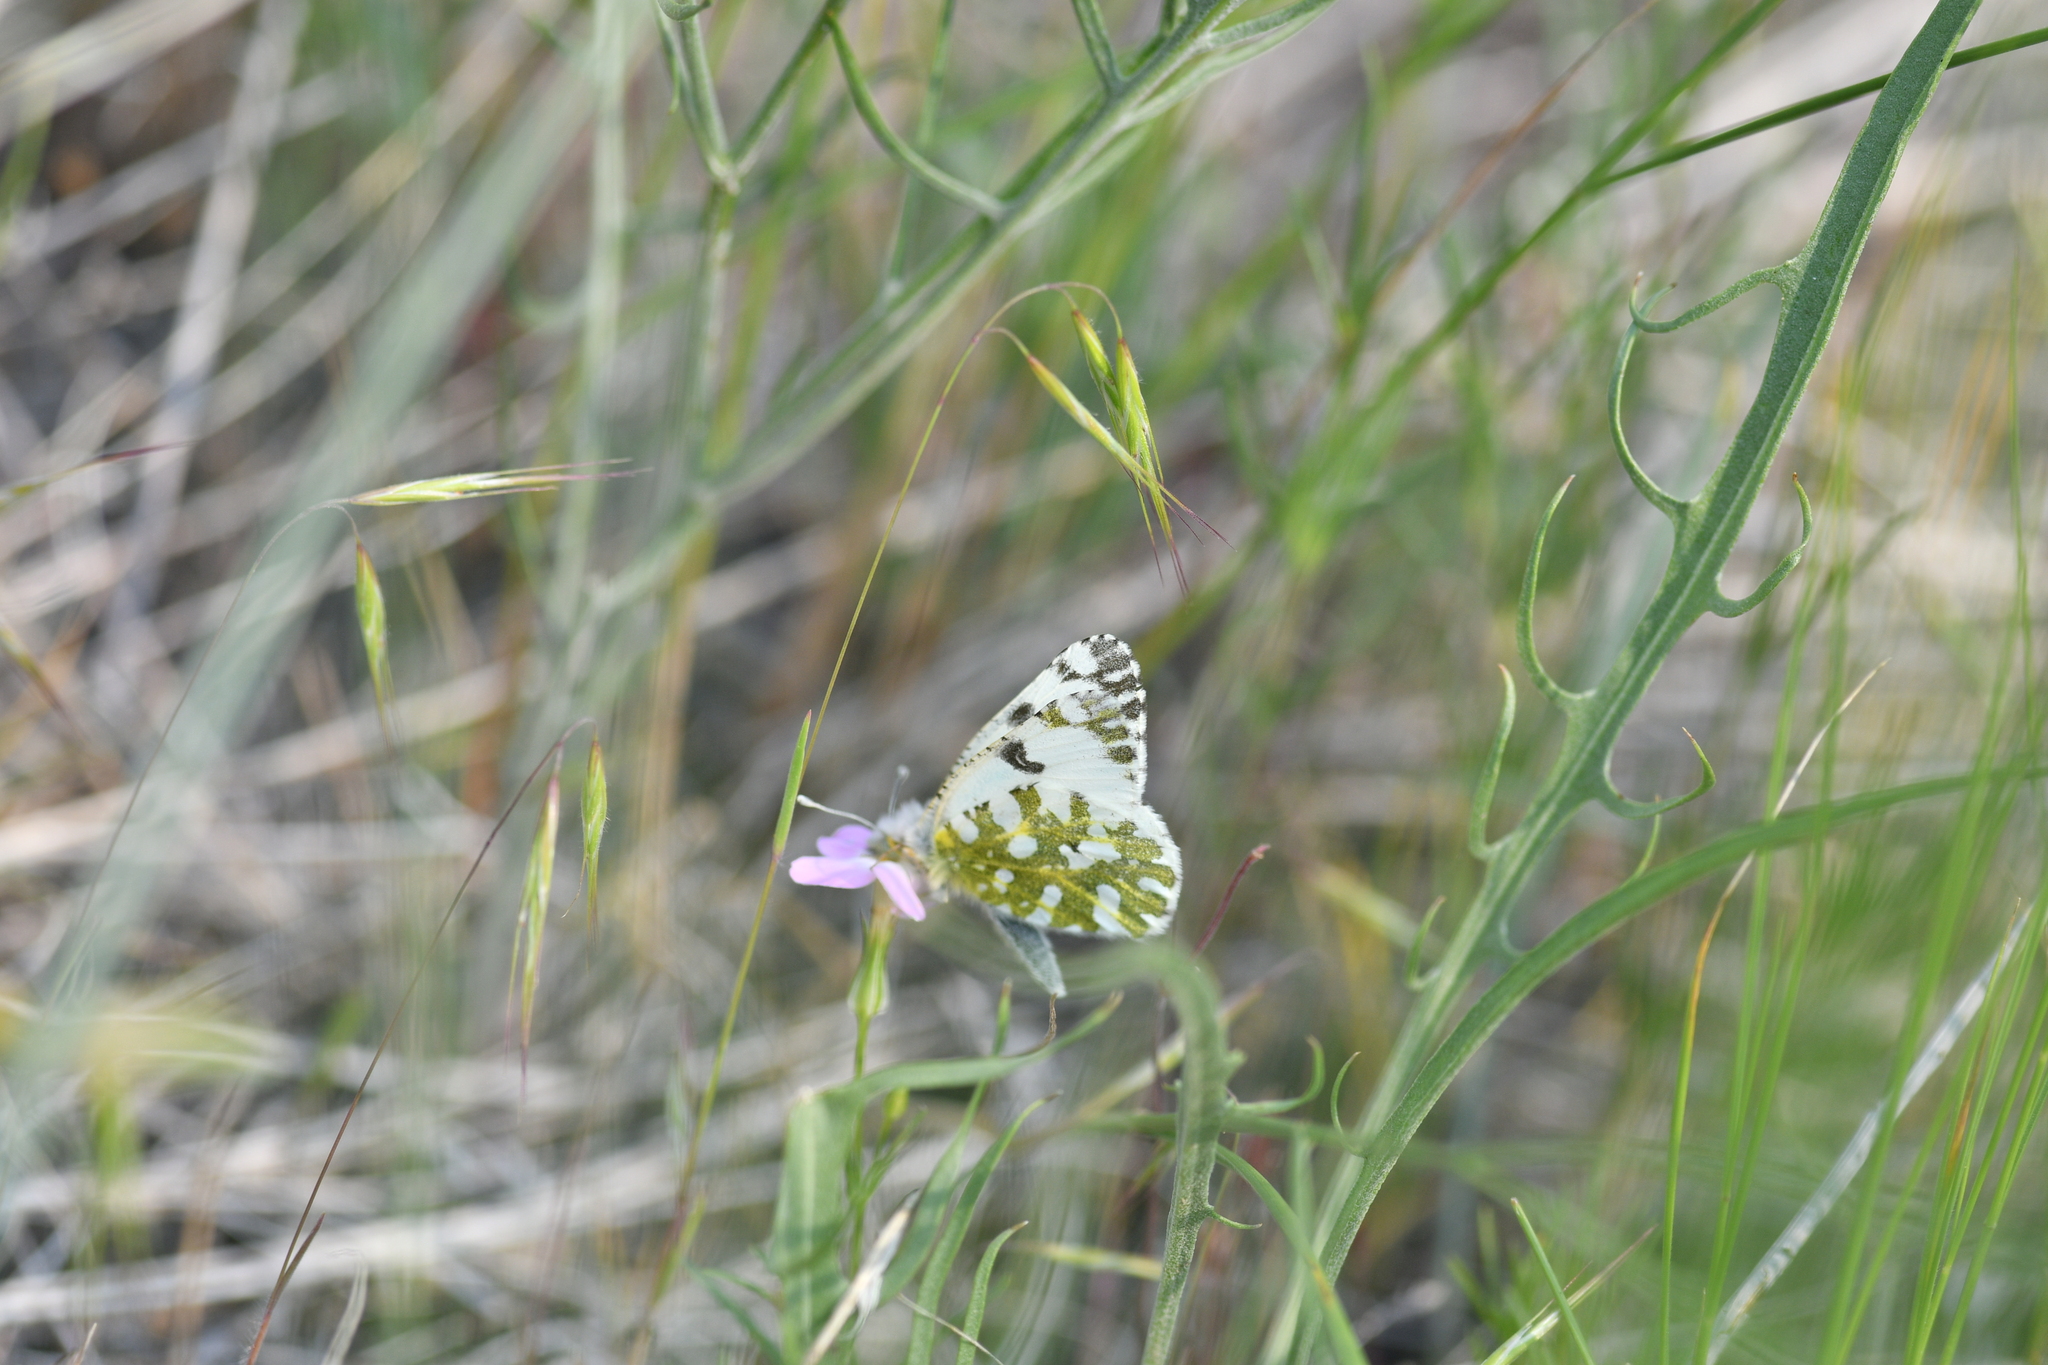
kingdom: Animalia
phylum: Arthropoda
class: Insecta
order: Lepidoptera
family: Pieridae
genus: Euchloe
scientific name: Euchloe ausonides
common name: Creamy marblewing
